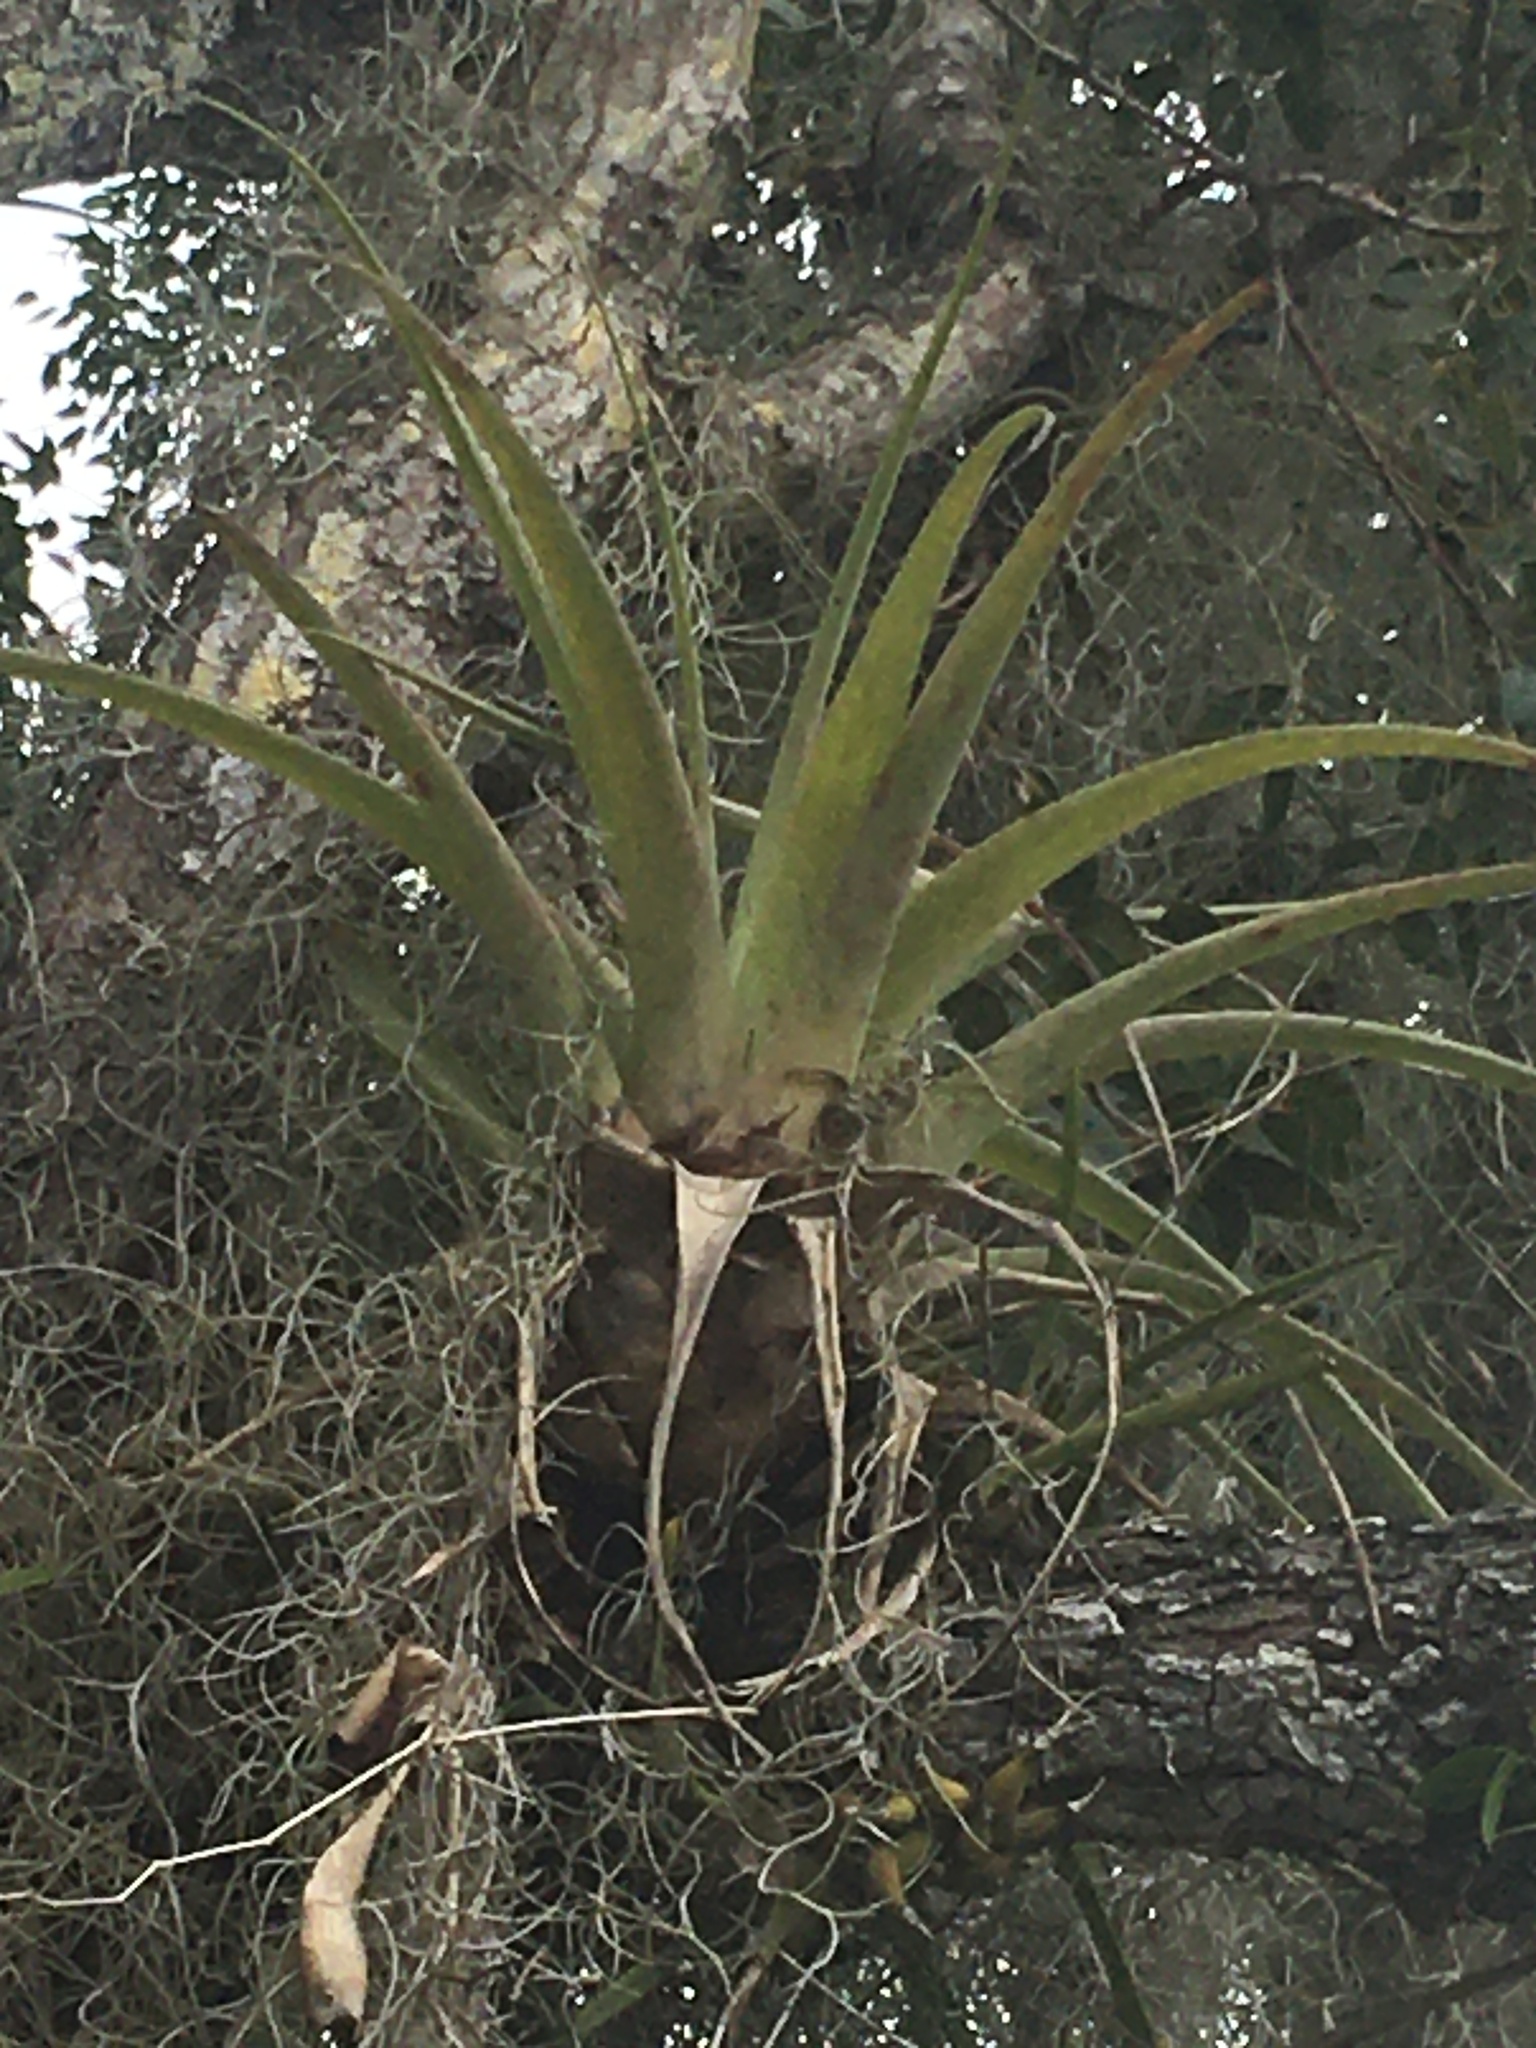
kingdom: Plantae
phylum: Tracheophyta
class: Liliopsida
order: Poales
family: Bromeliaceae
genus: Tillandsia
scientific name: Tillandsia utriculata
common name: Wild pine
